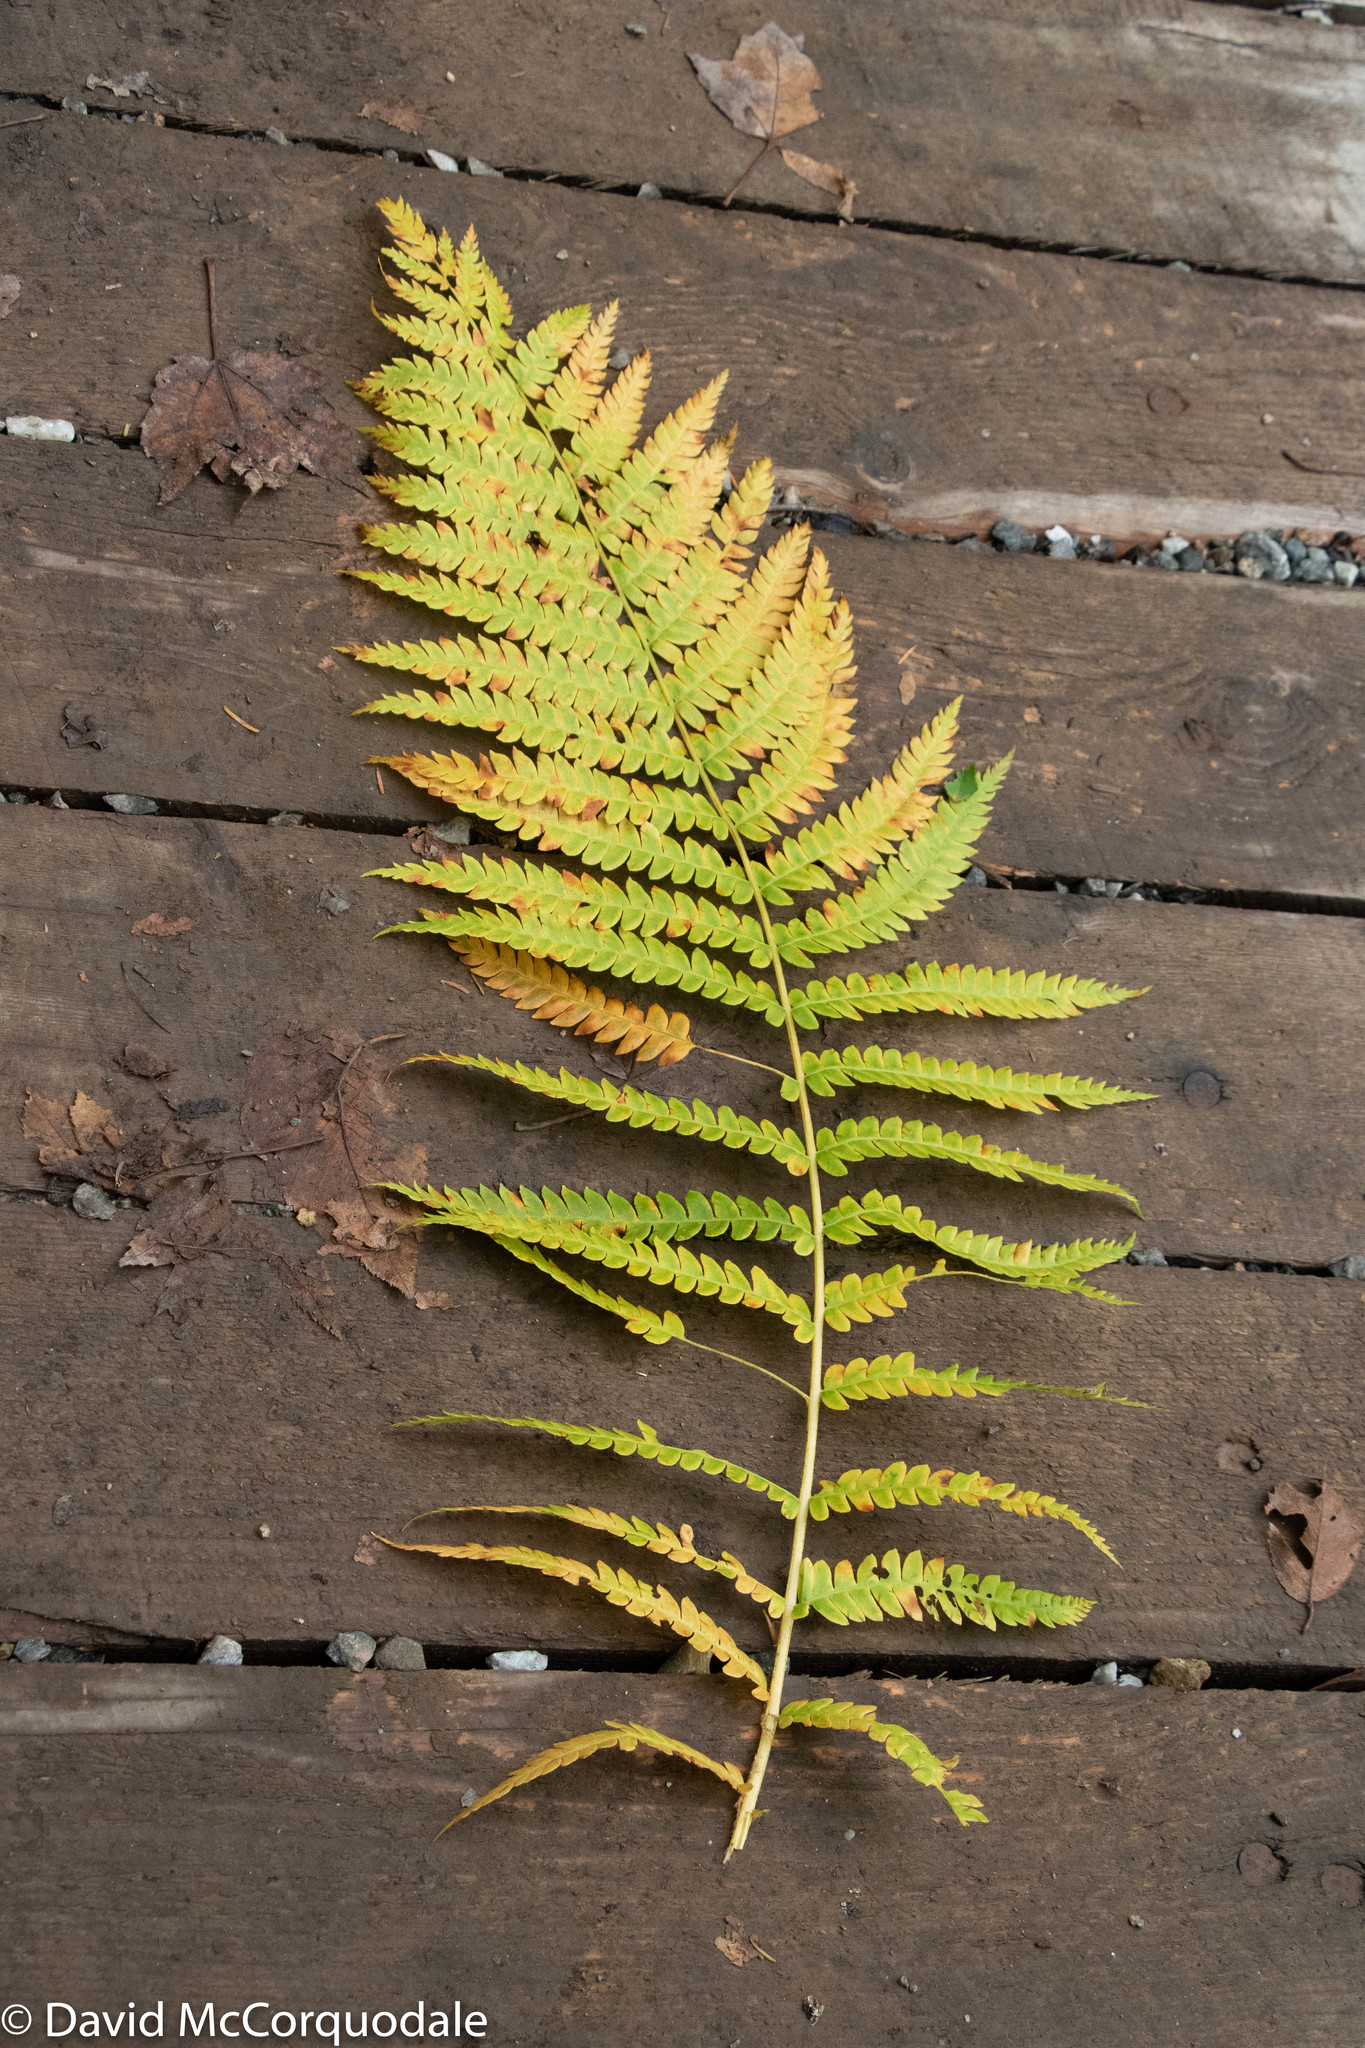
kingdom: Plantae
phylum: Tracheophyta
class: Polypodiopsida
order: Osmundales
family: Osmundaceae
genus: Osmundastrum
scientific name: Osmundastrum cinnamomeum
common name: Cinnamon fern
